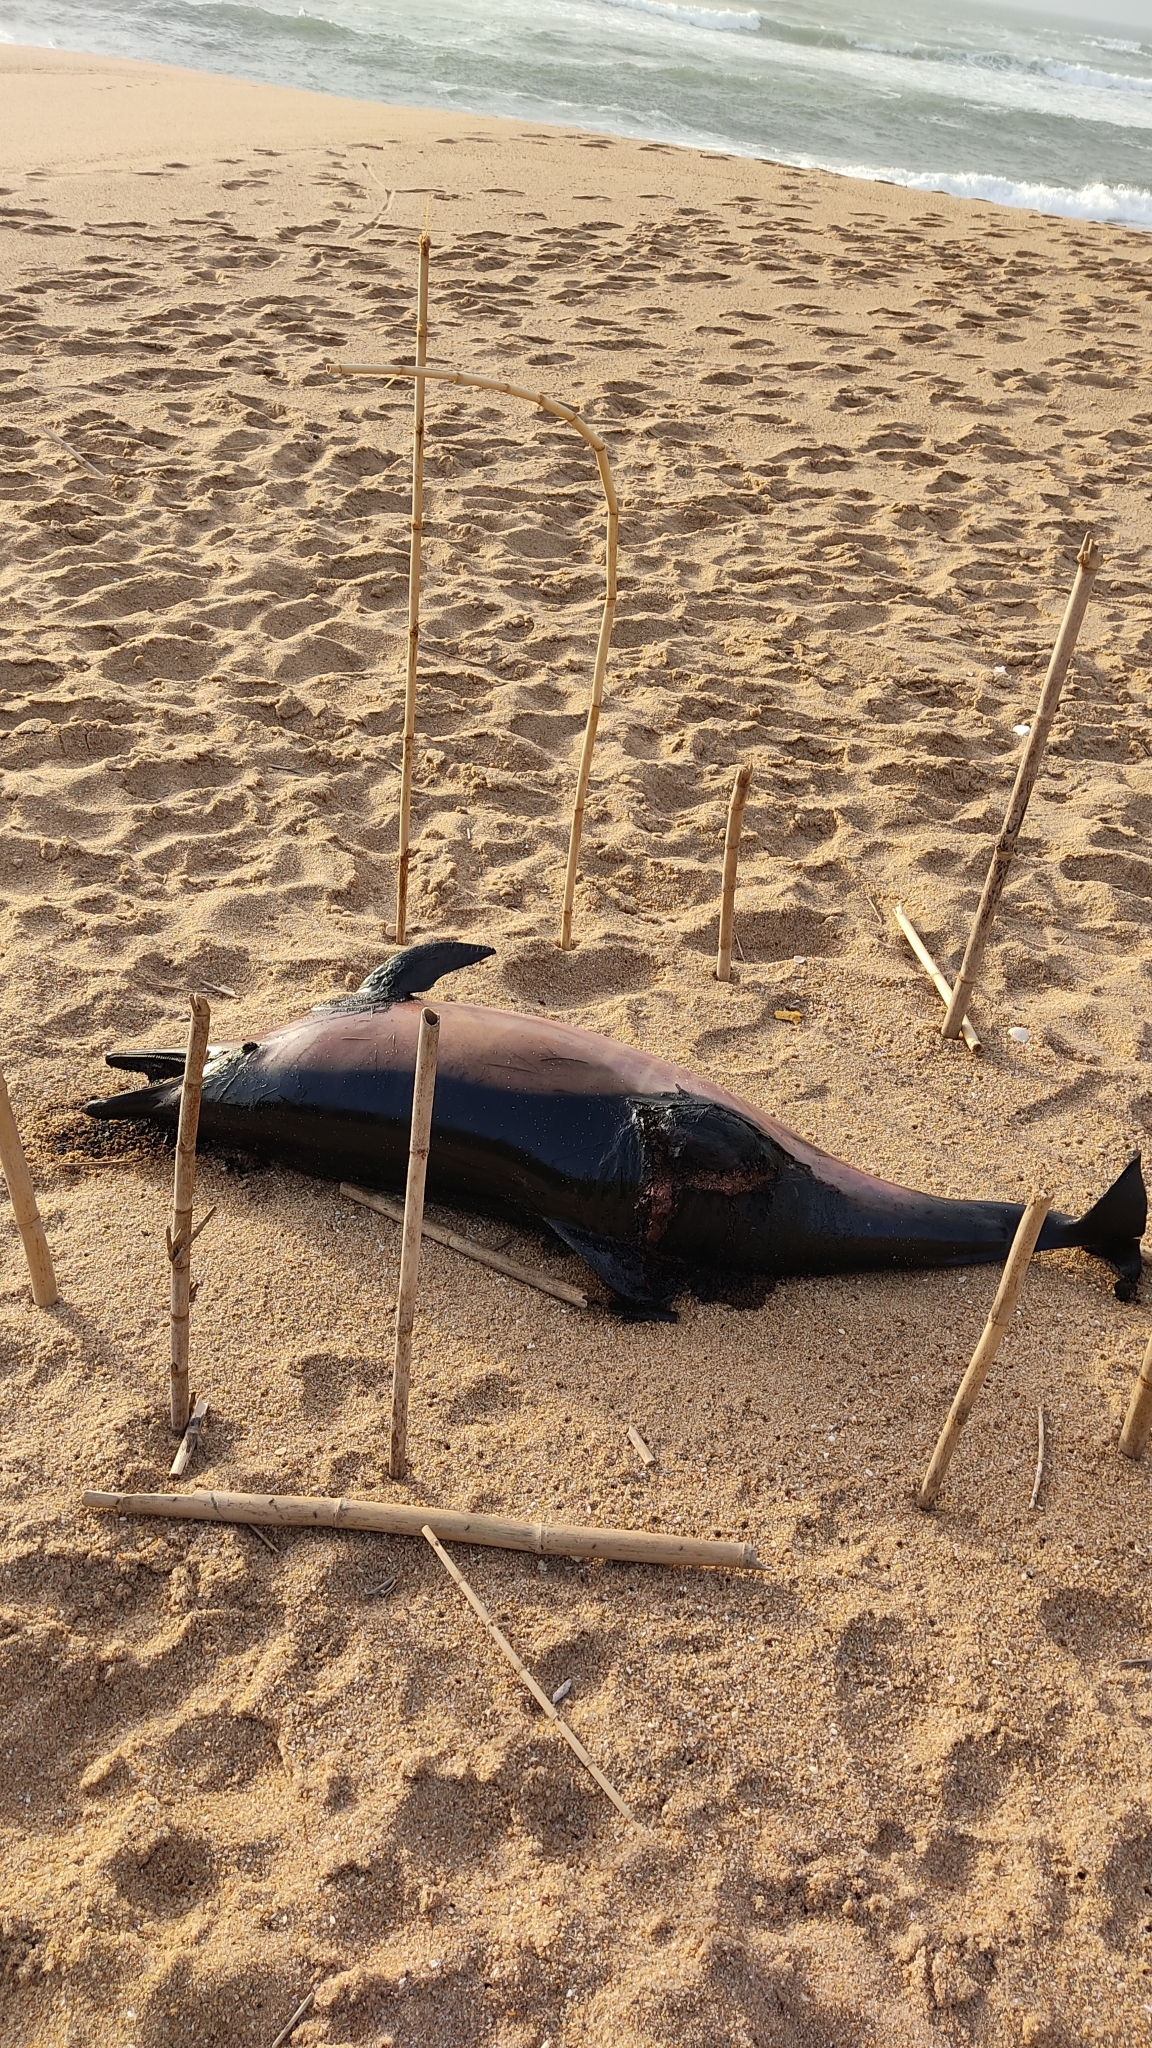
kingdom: Animalia
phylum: Chordata
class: Mammalia
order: Cetacea
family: Delphinidae
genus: Delphinus
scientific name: Delphinus delphis
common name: Common dolphin
